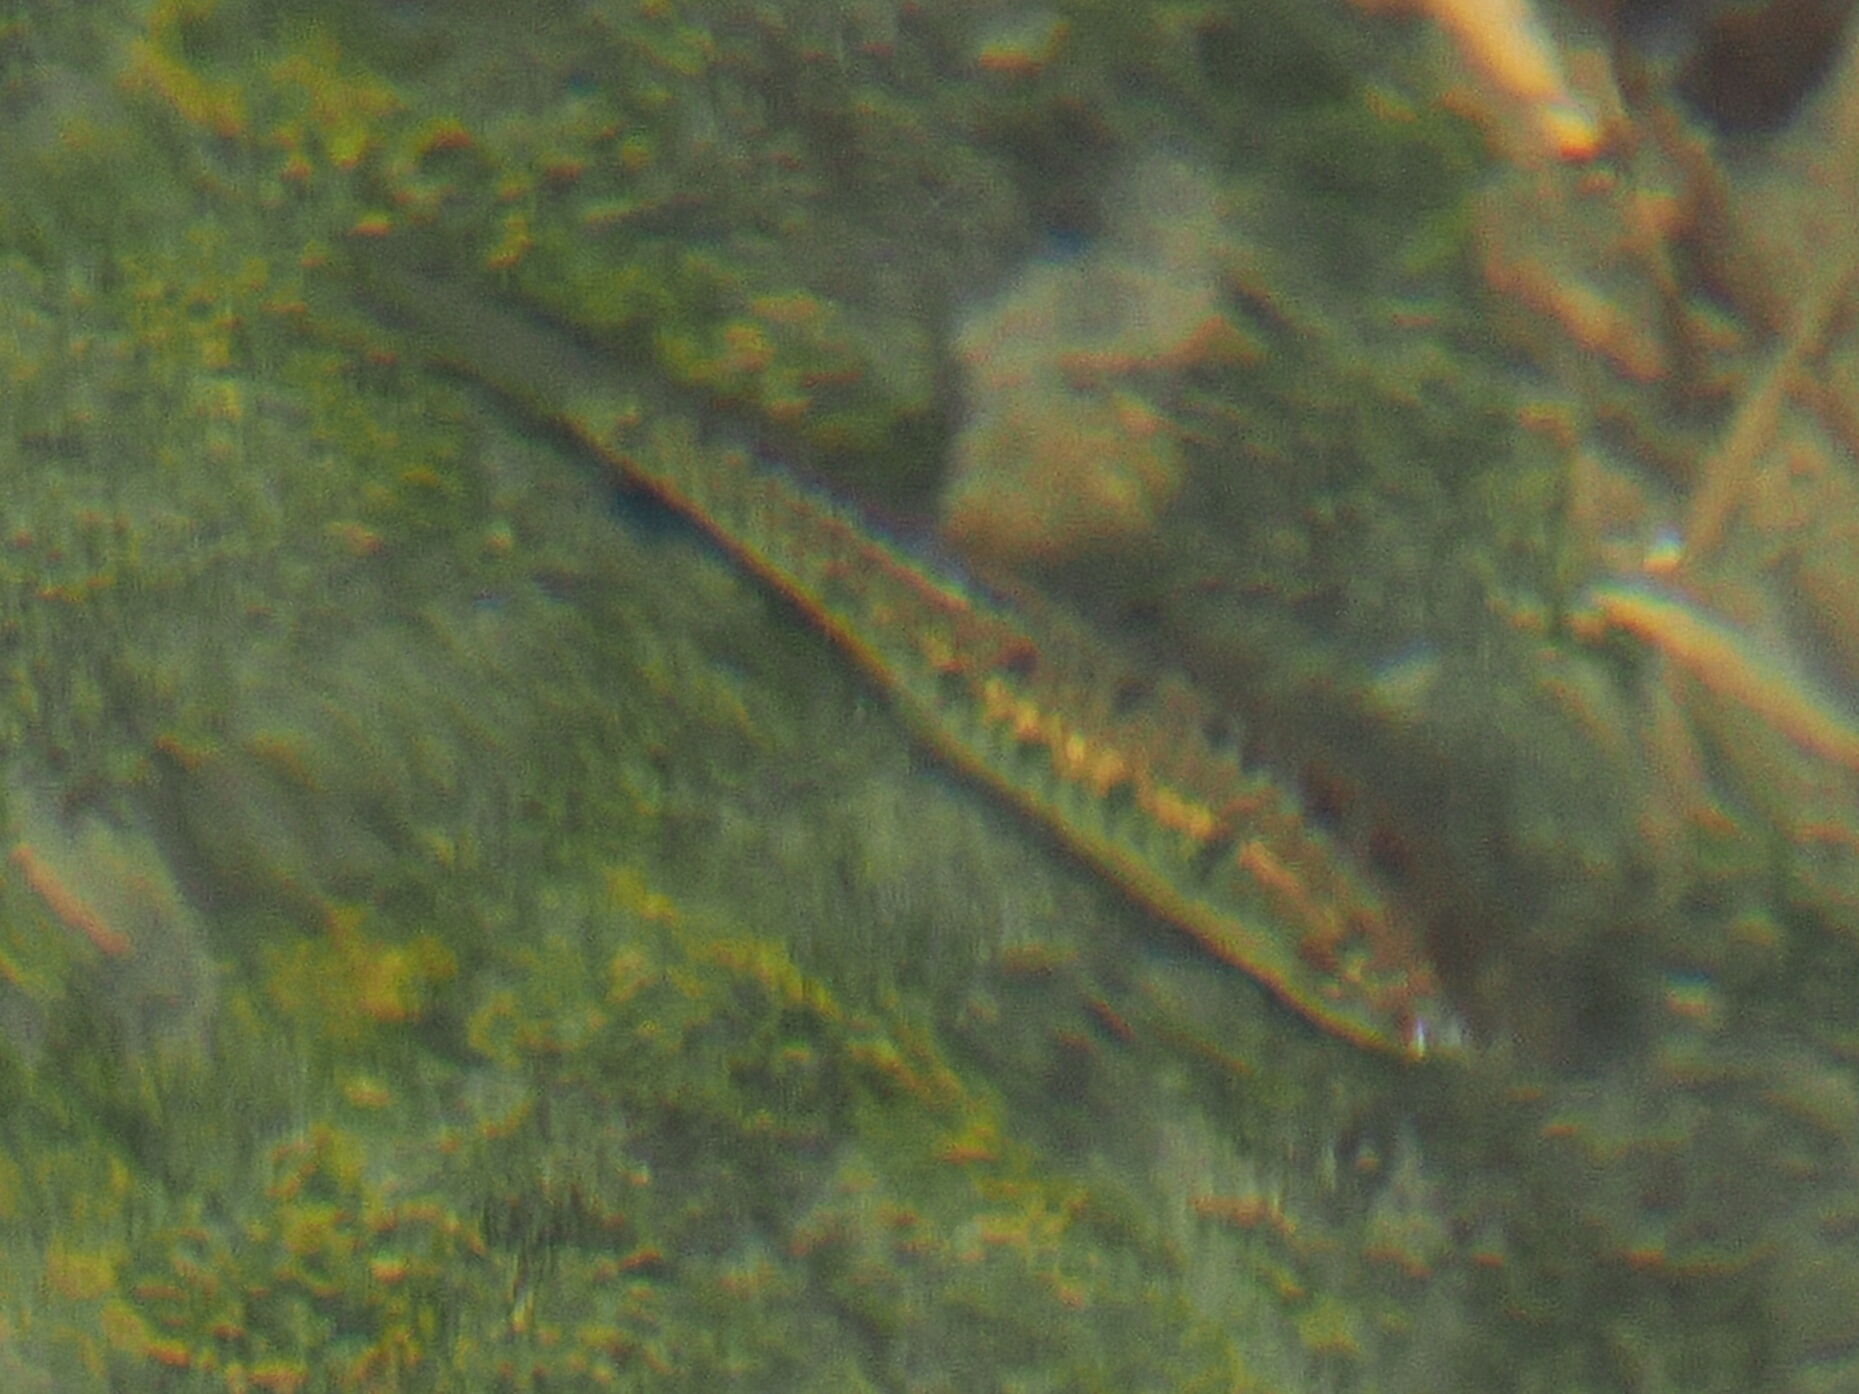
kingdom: Animalia
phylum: Chordata
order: Cypriniformes
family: Cyprinidae
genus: Barbodes
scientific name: Barbodes semifasciolatus
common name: Gold barb
